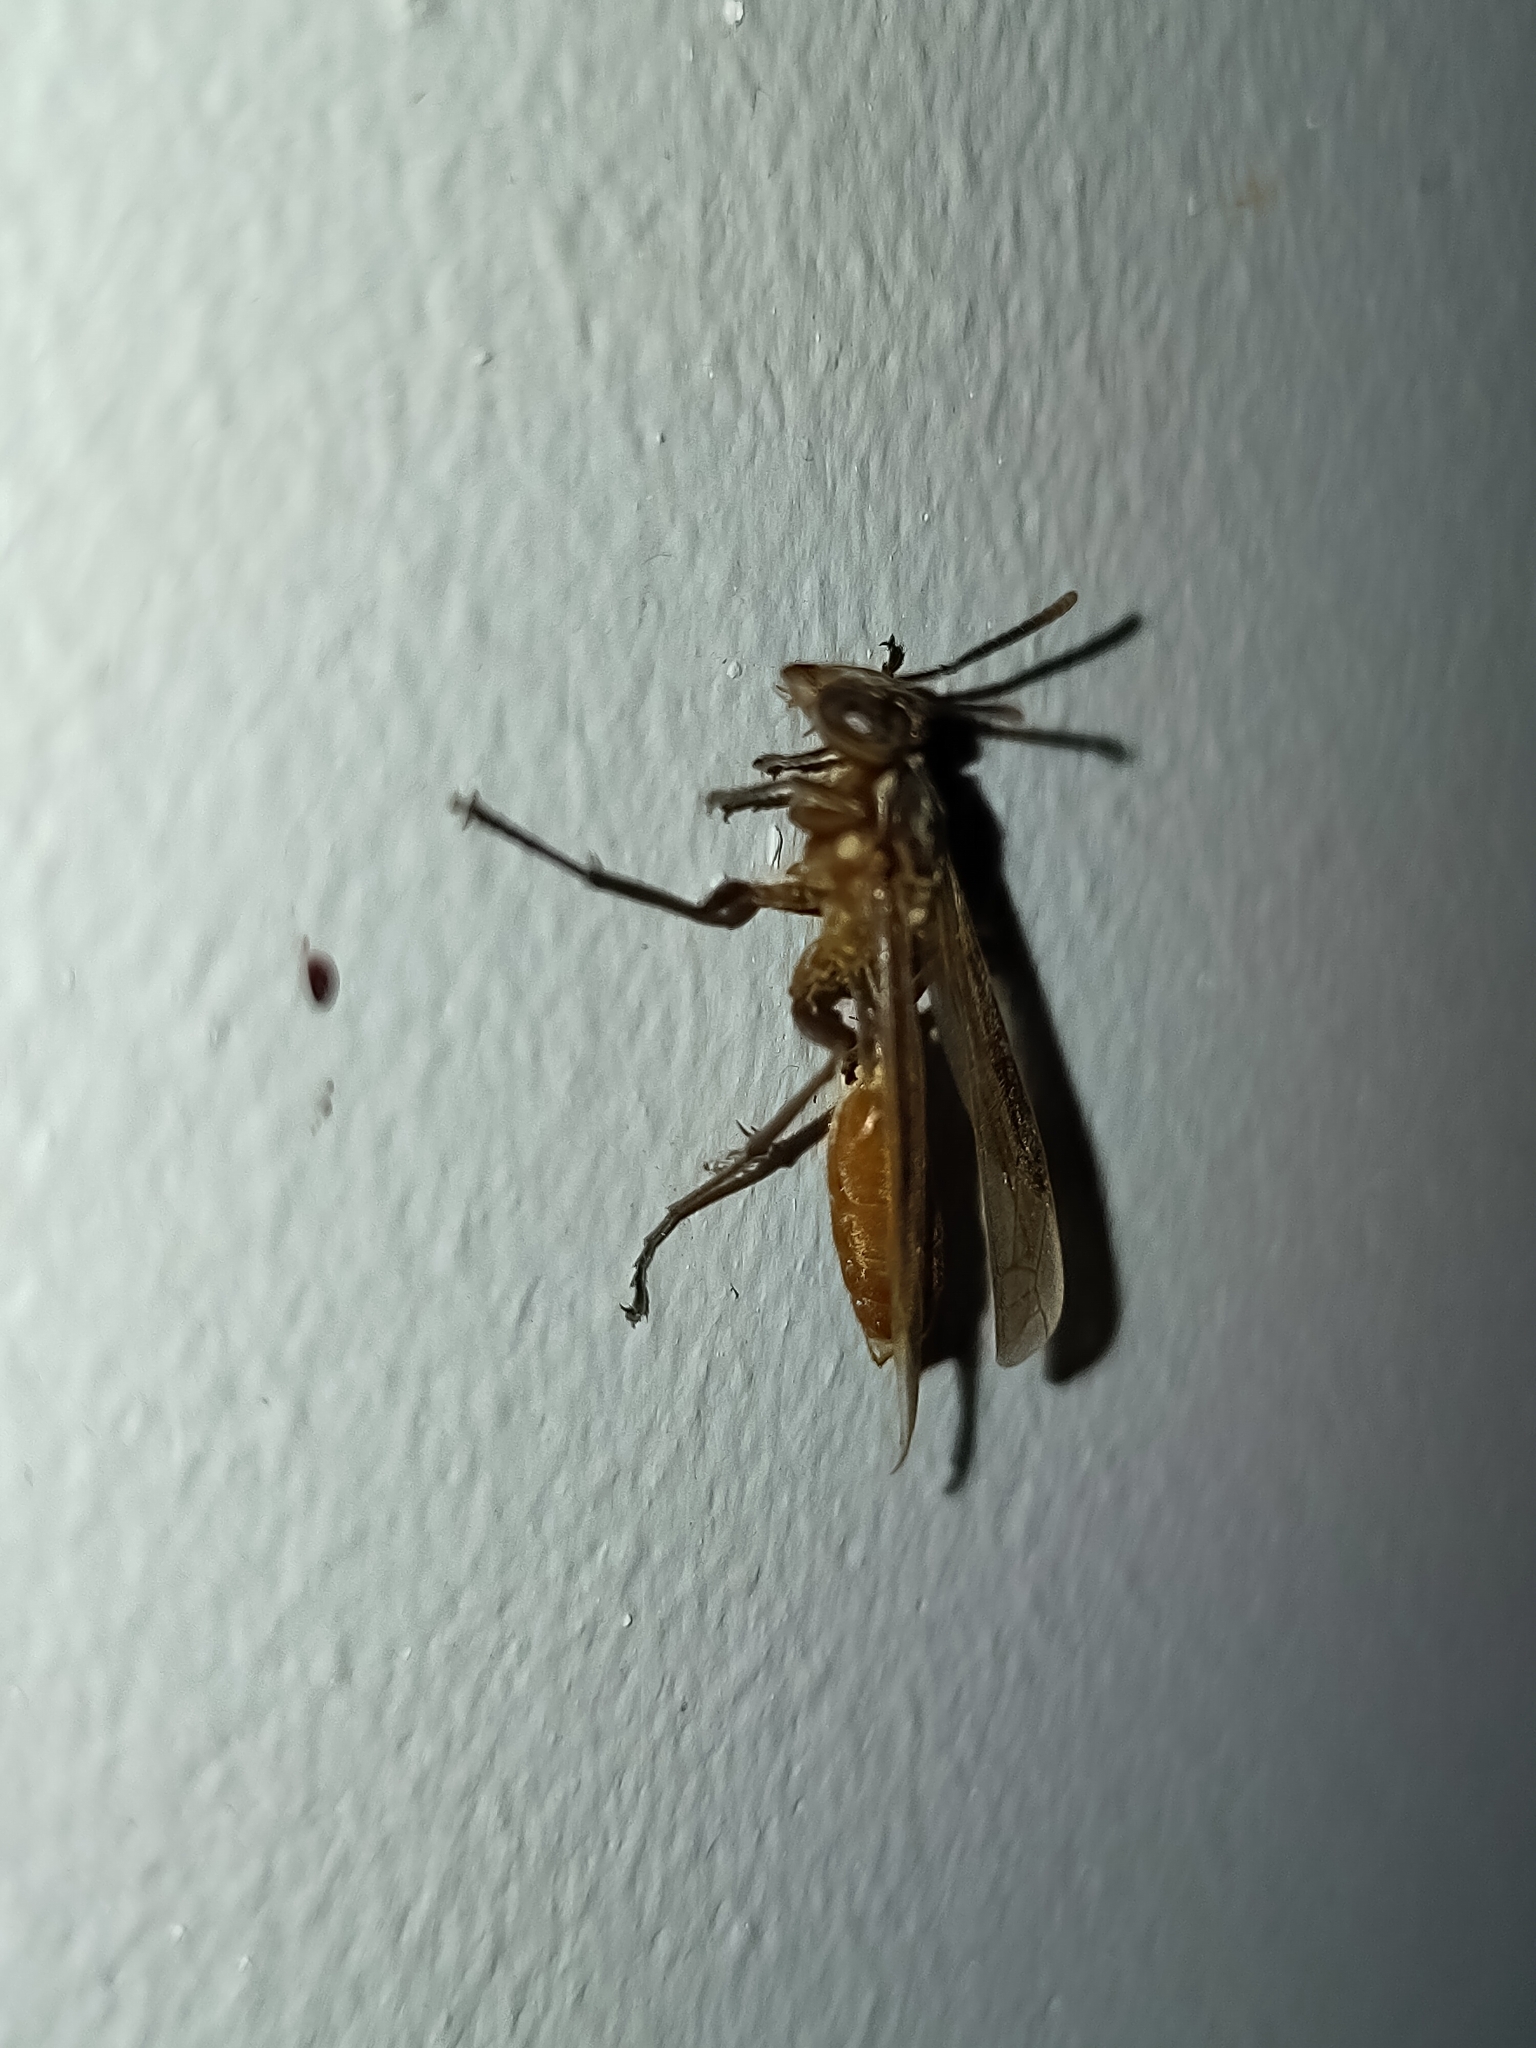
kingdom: Animalia
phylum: Arthropoda
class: Insecta
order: Hymenoptera
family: Vespidae
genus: Apoica
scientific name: Apoica pallida
